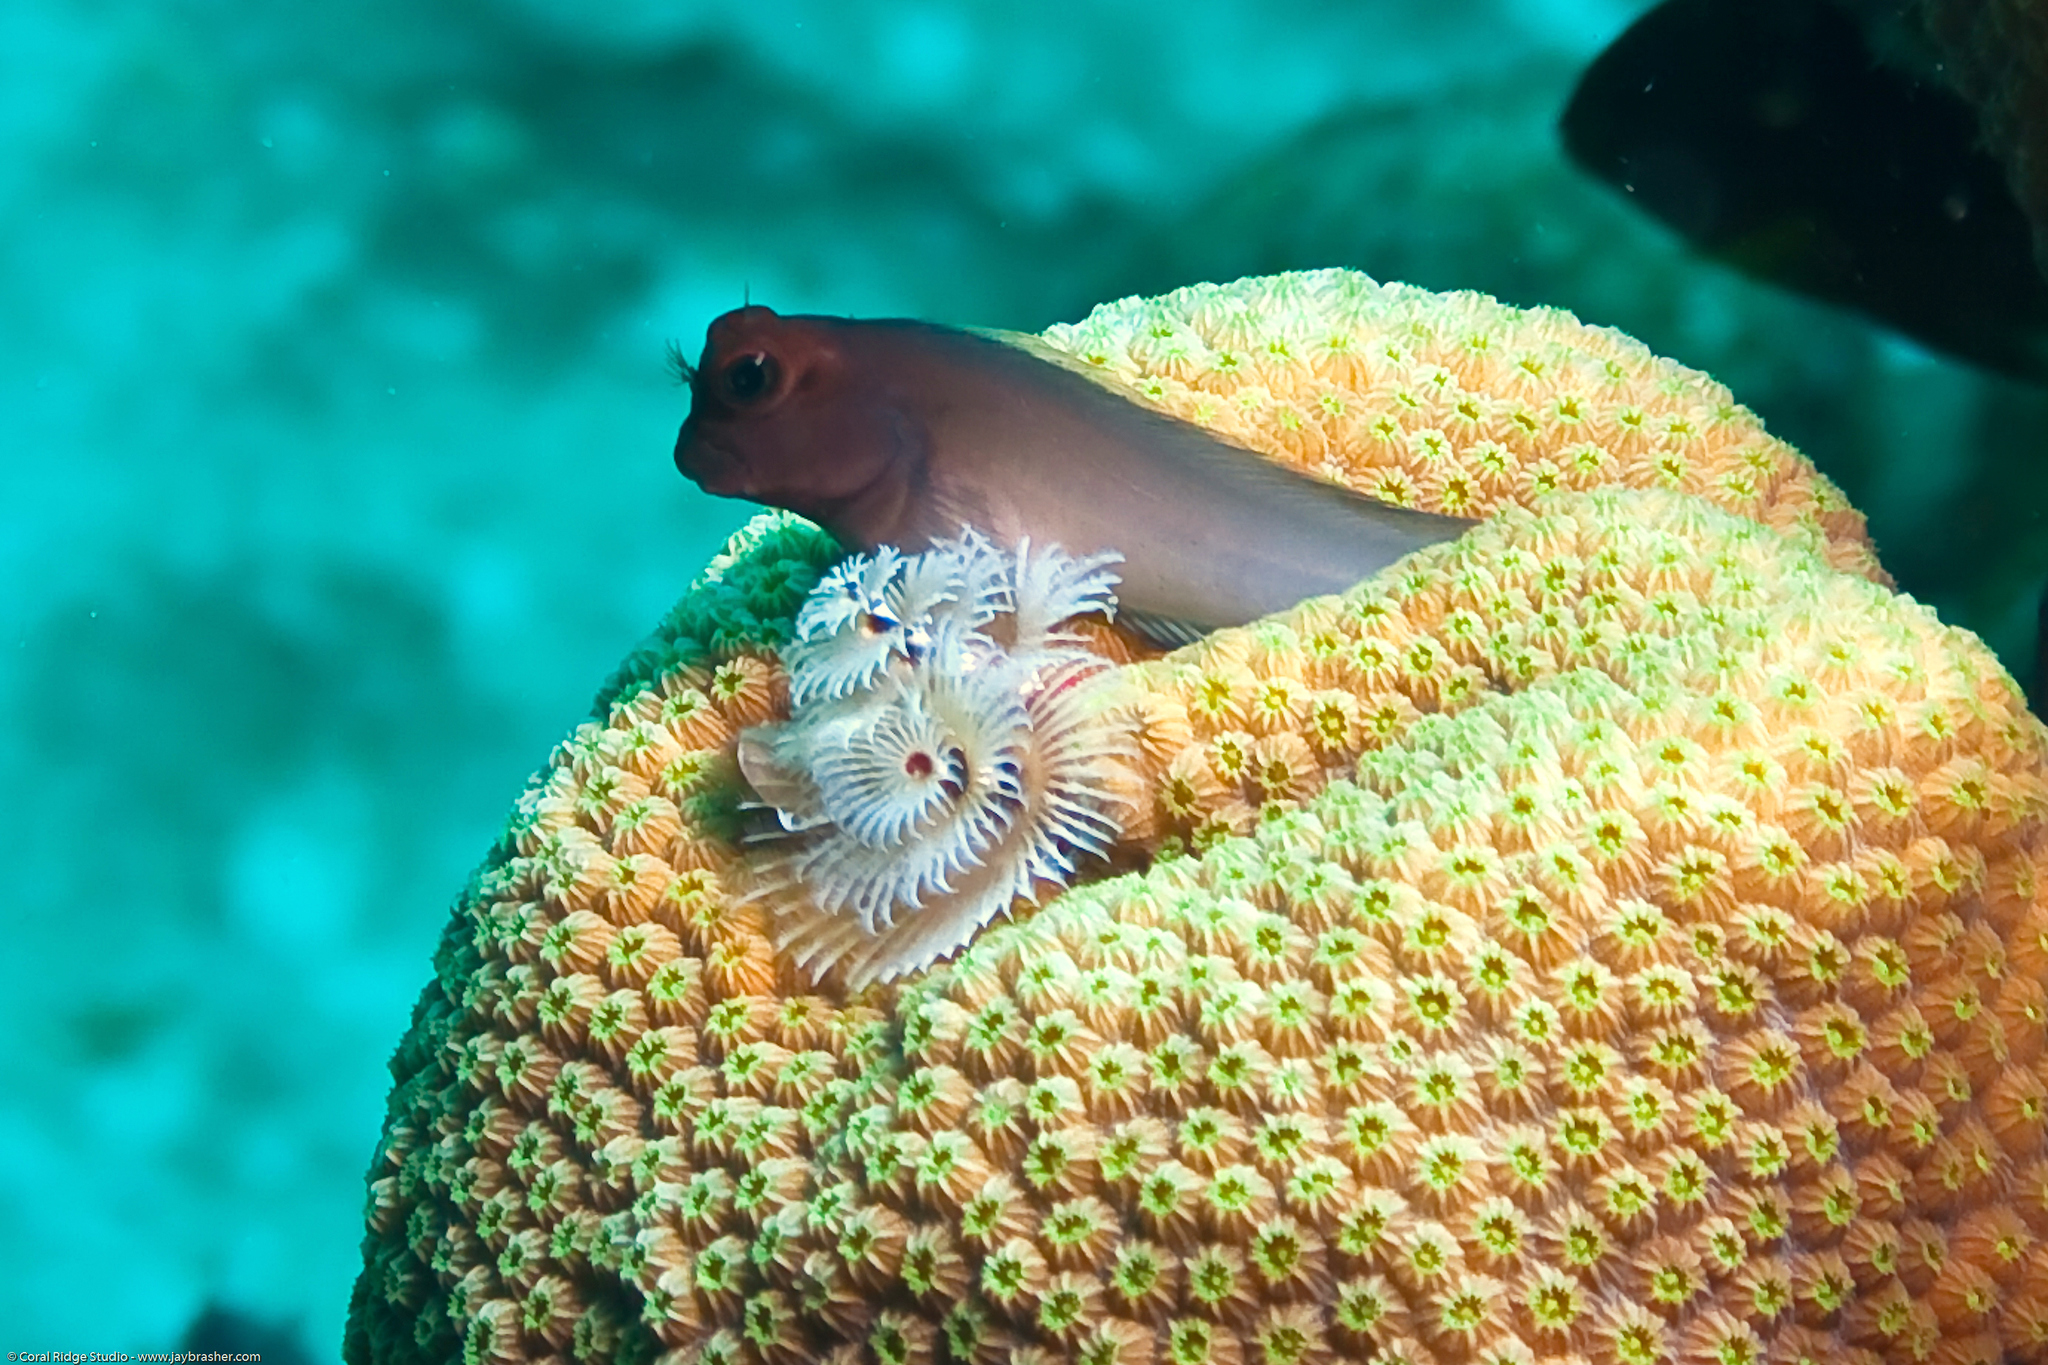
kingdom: Animalia
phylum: Chordata
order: Perciformes
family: Blenniidae
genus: Ophioblennius
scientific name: Ophioblennius macclurei
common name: Redlip blenny
